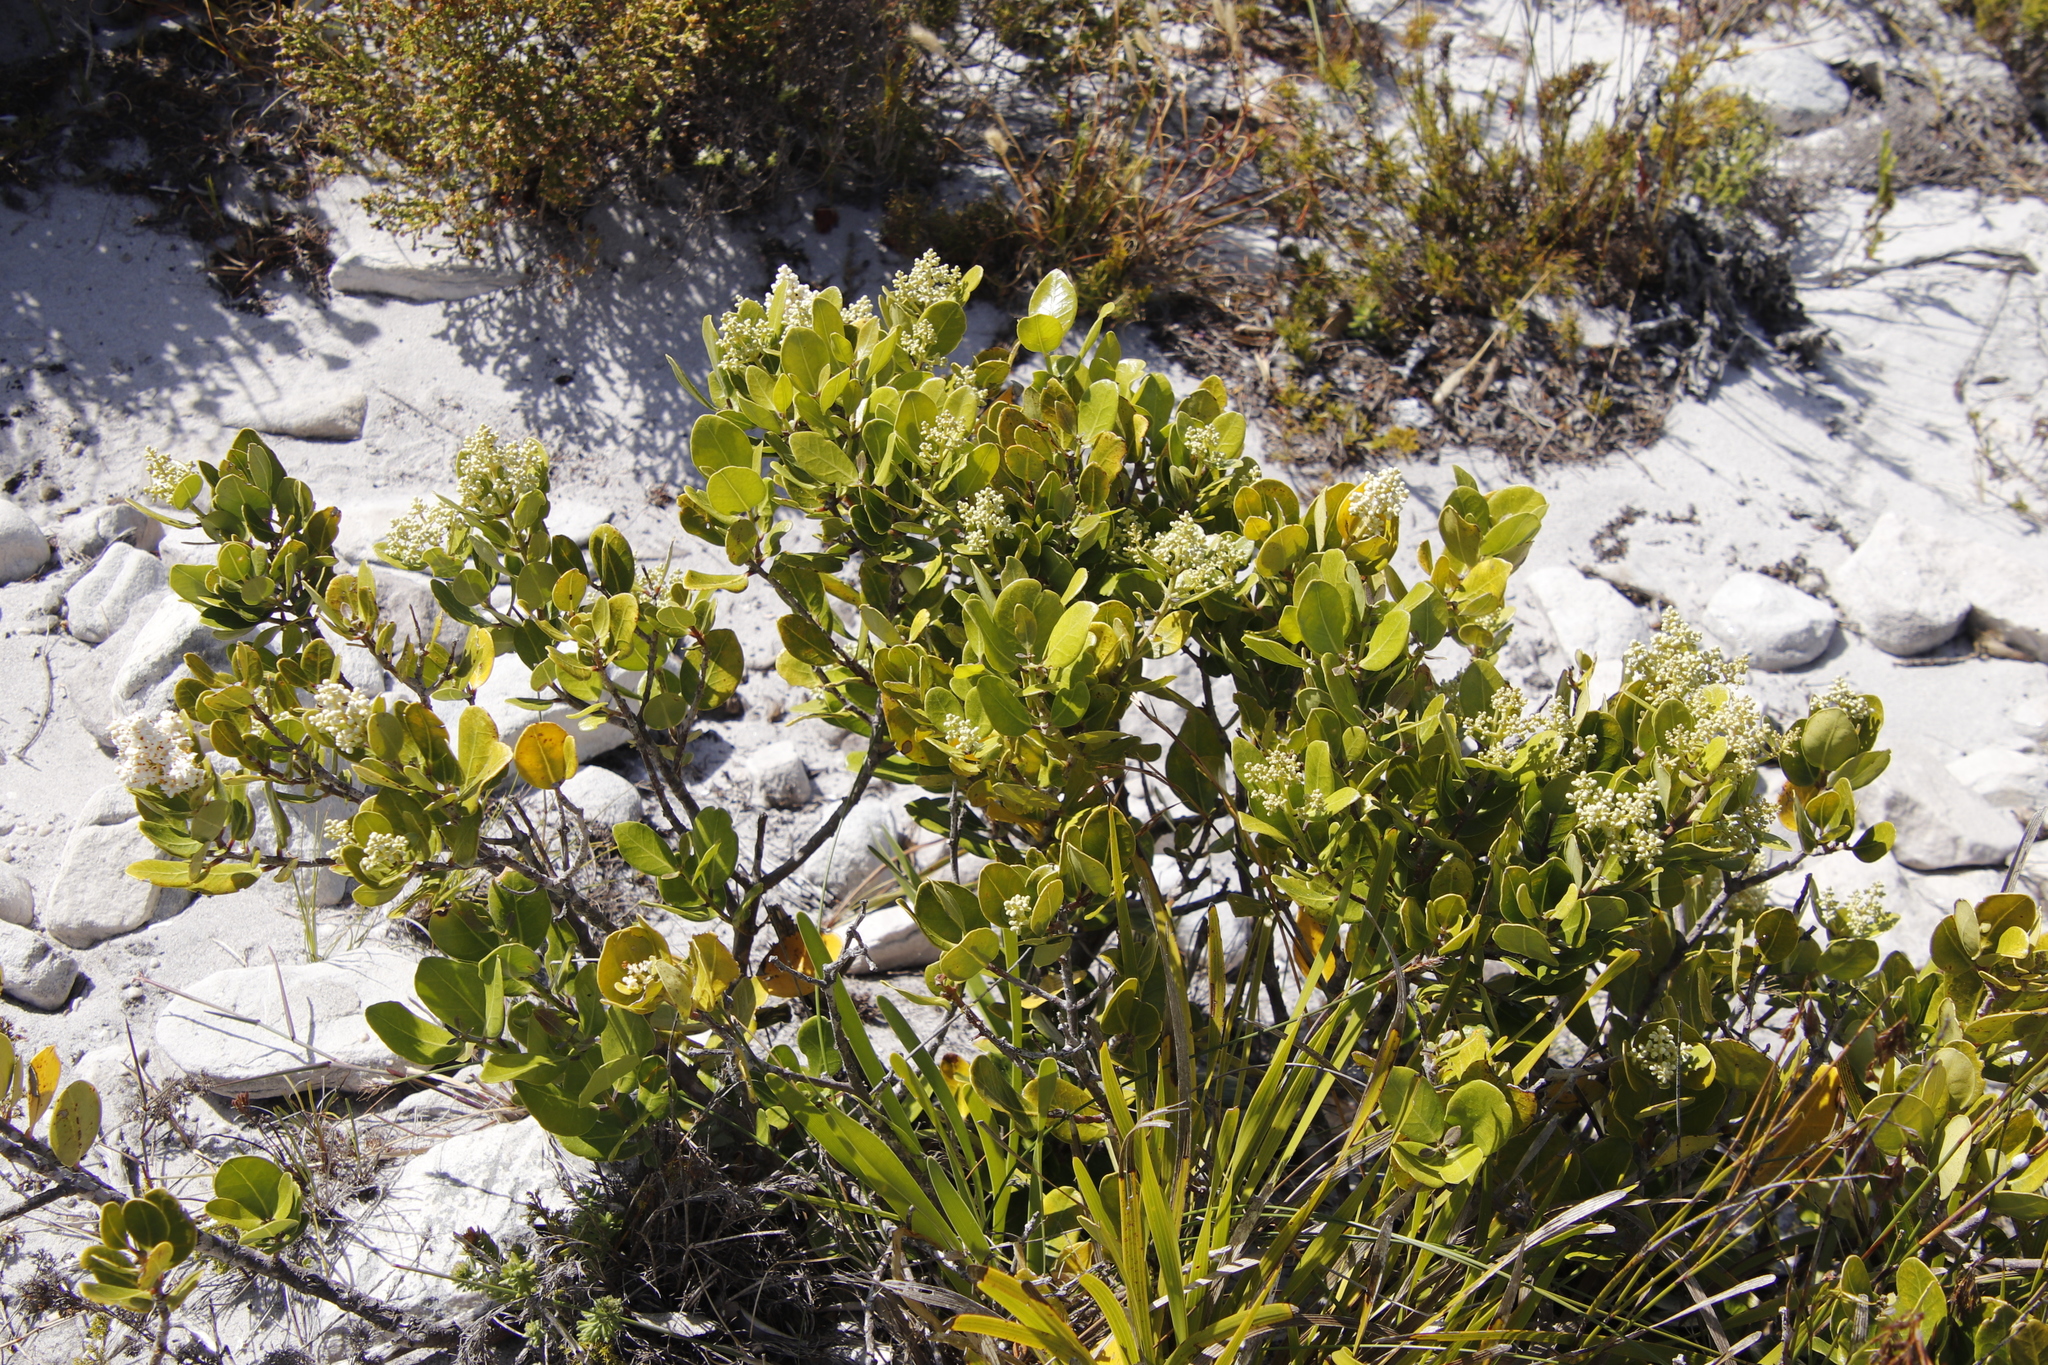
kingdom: Plantae
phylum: Tracheophyta
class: Magnoliopsida
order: Lamiales
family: Oleaceae
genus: Olea
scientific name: Olea capensis
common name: Black ironwood
